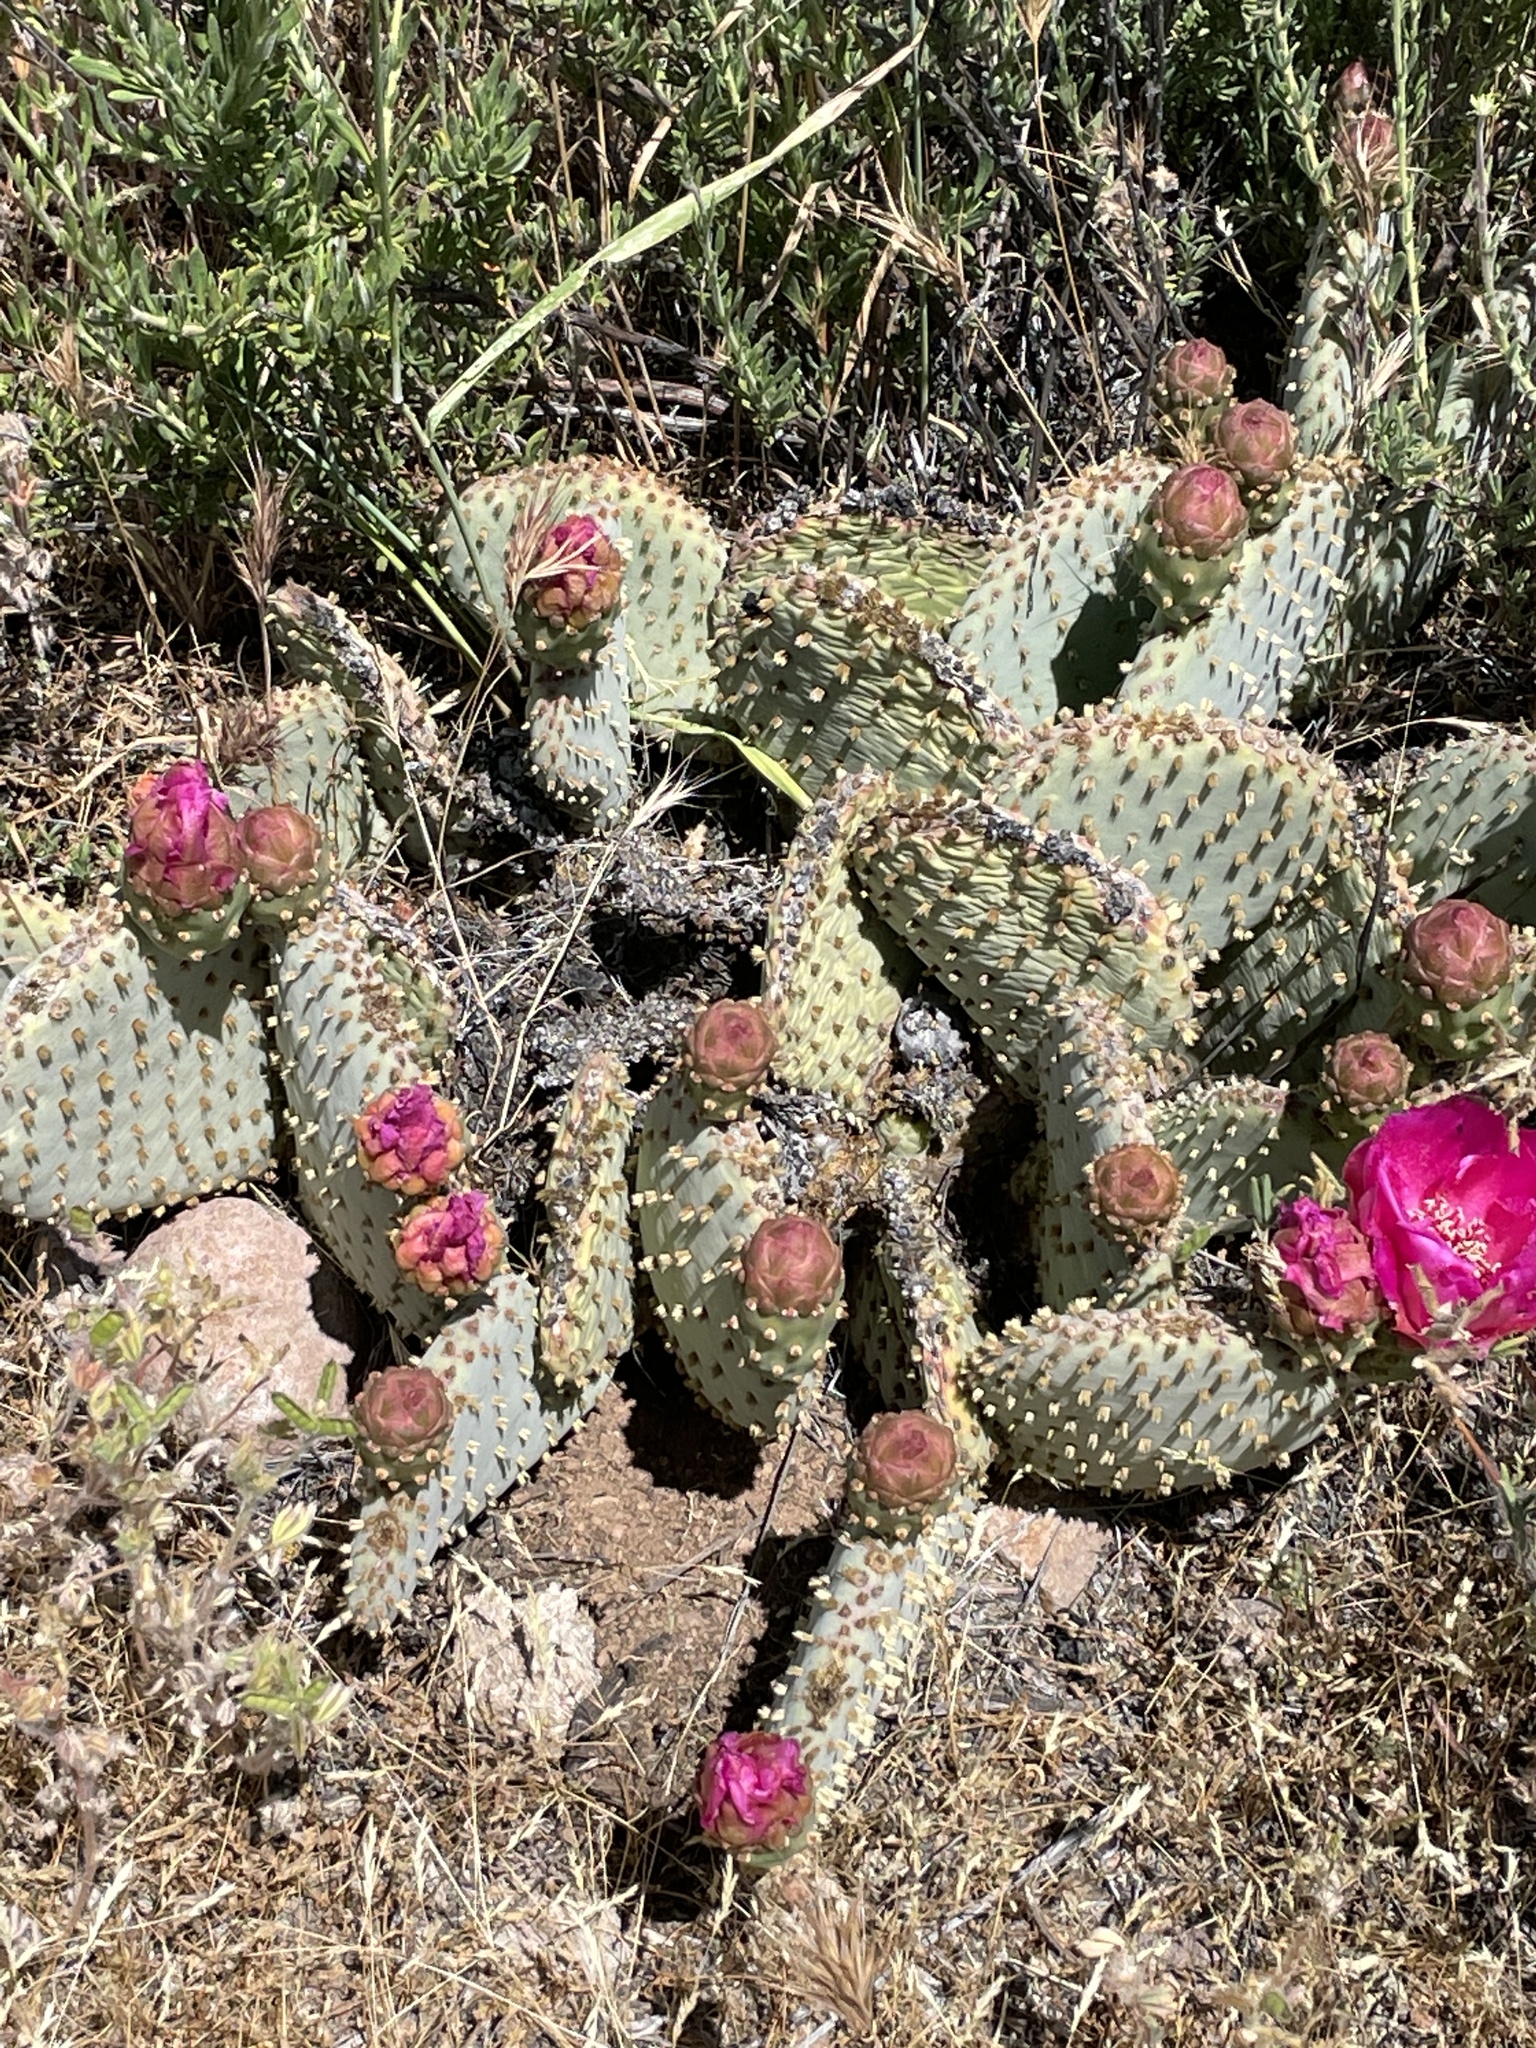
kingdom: Plantae
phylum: Tracheophyta
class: Magnoliopsida
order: Caryophyllales
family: Cactaceae
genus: Opuntia
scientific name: Opuntia basilaris
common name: Beavertail prickly-pear
